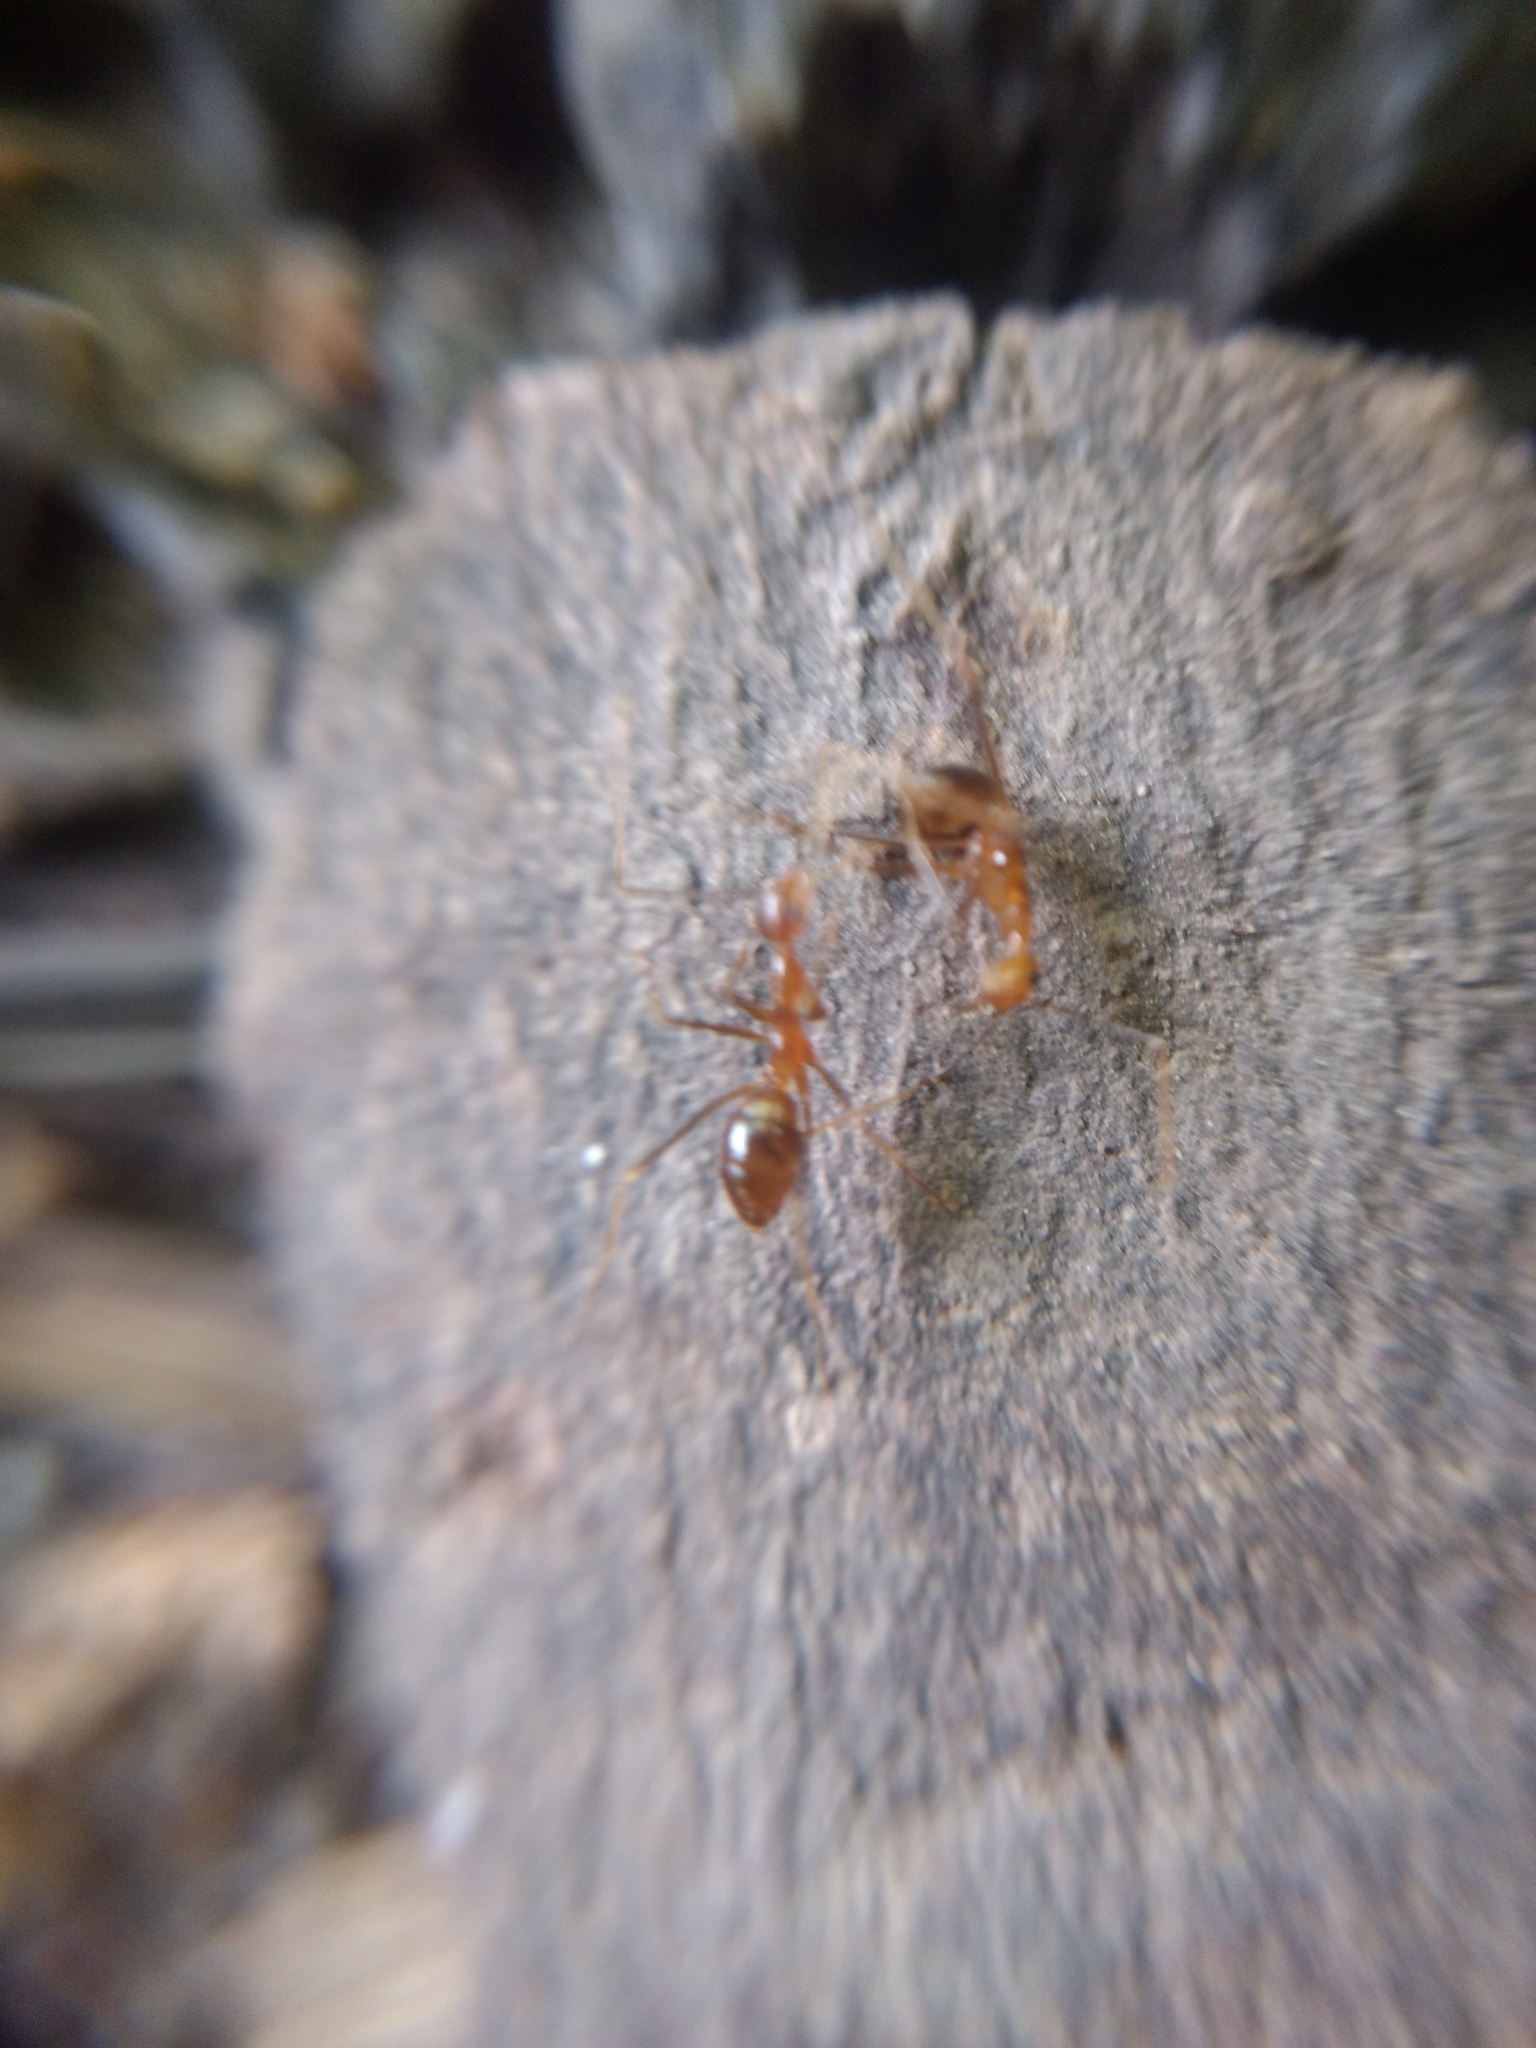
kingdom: Animalia
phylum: Arthropoda
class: Insecta
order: Hymenoptera
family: Formicidae
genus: Anoplolepis
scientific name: Anoplolepis gracilipes
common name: Ant
